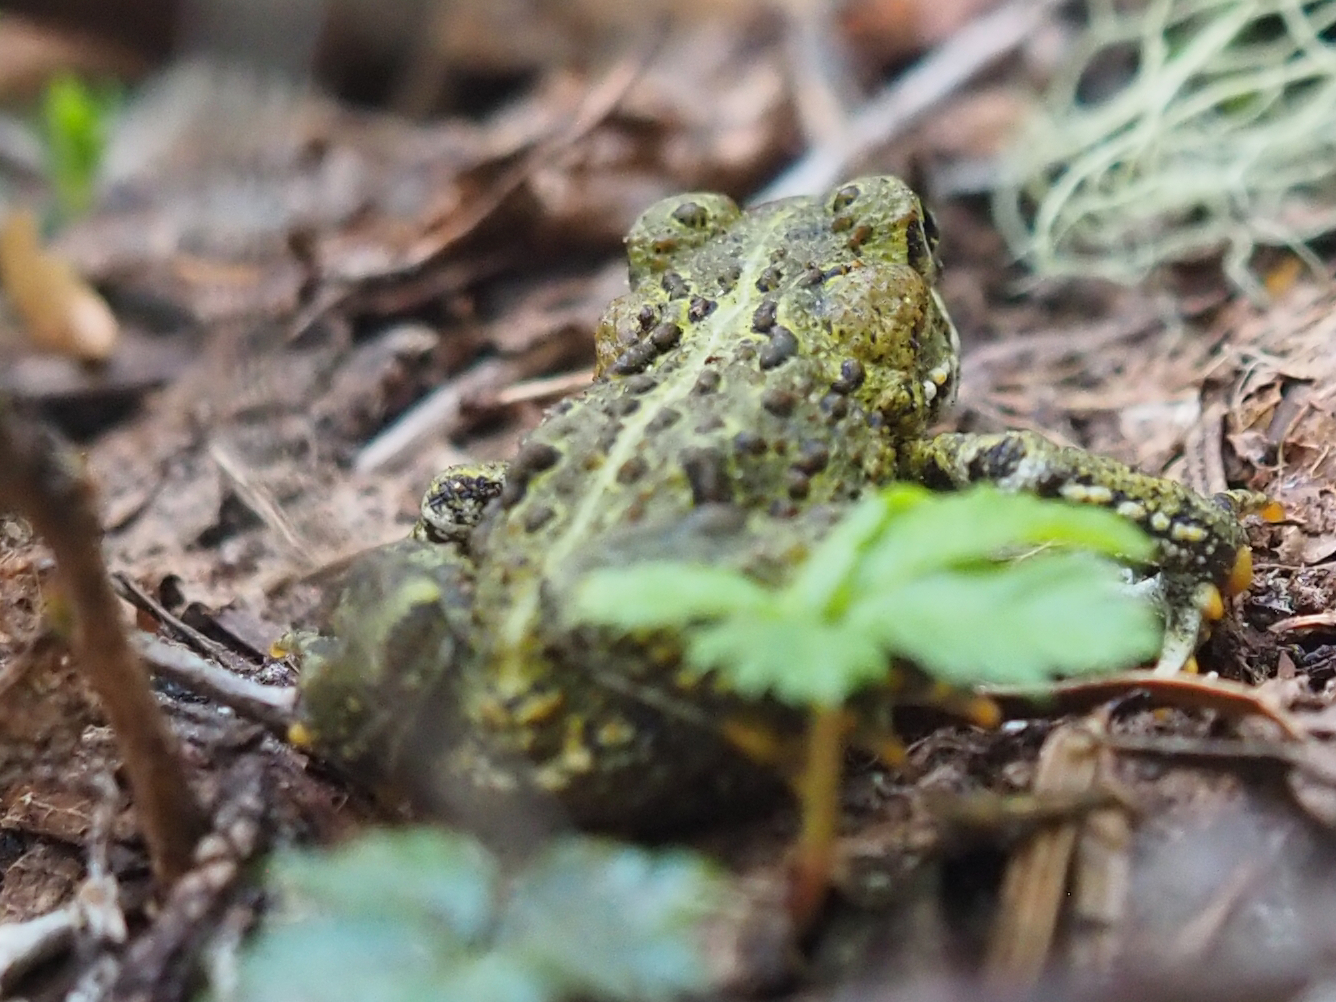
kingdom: Animalia
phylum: Chordata
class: Amphibia
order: Anura
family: Bufonidae
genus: Anaxyrus
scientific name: Anaxyrus boreas
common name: Western toad
